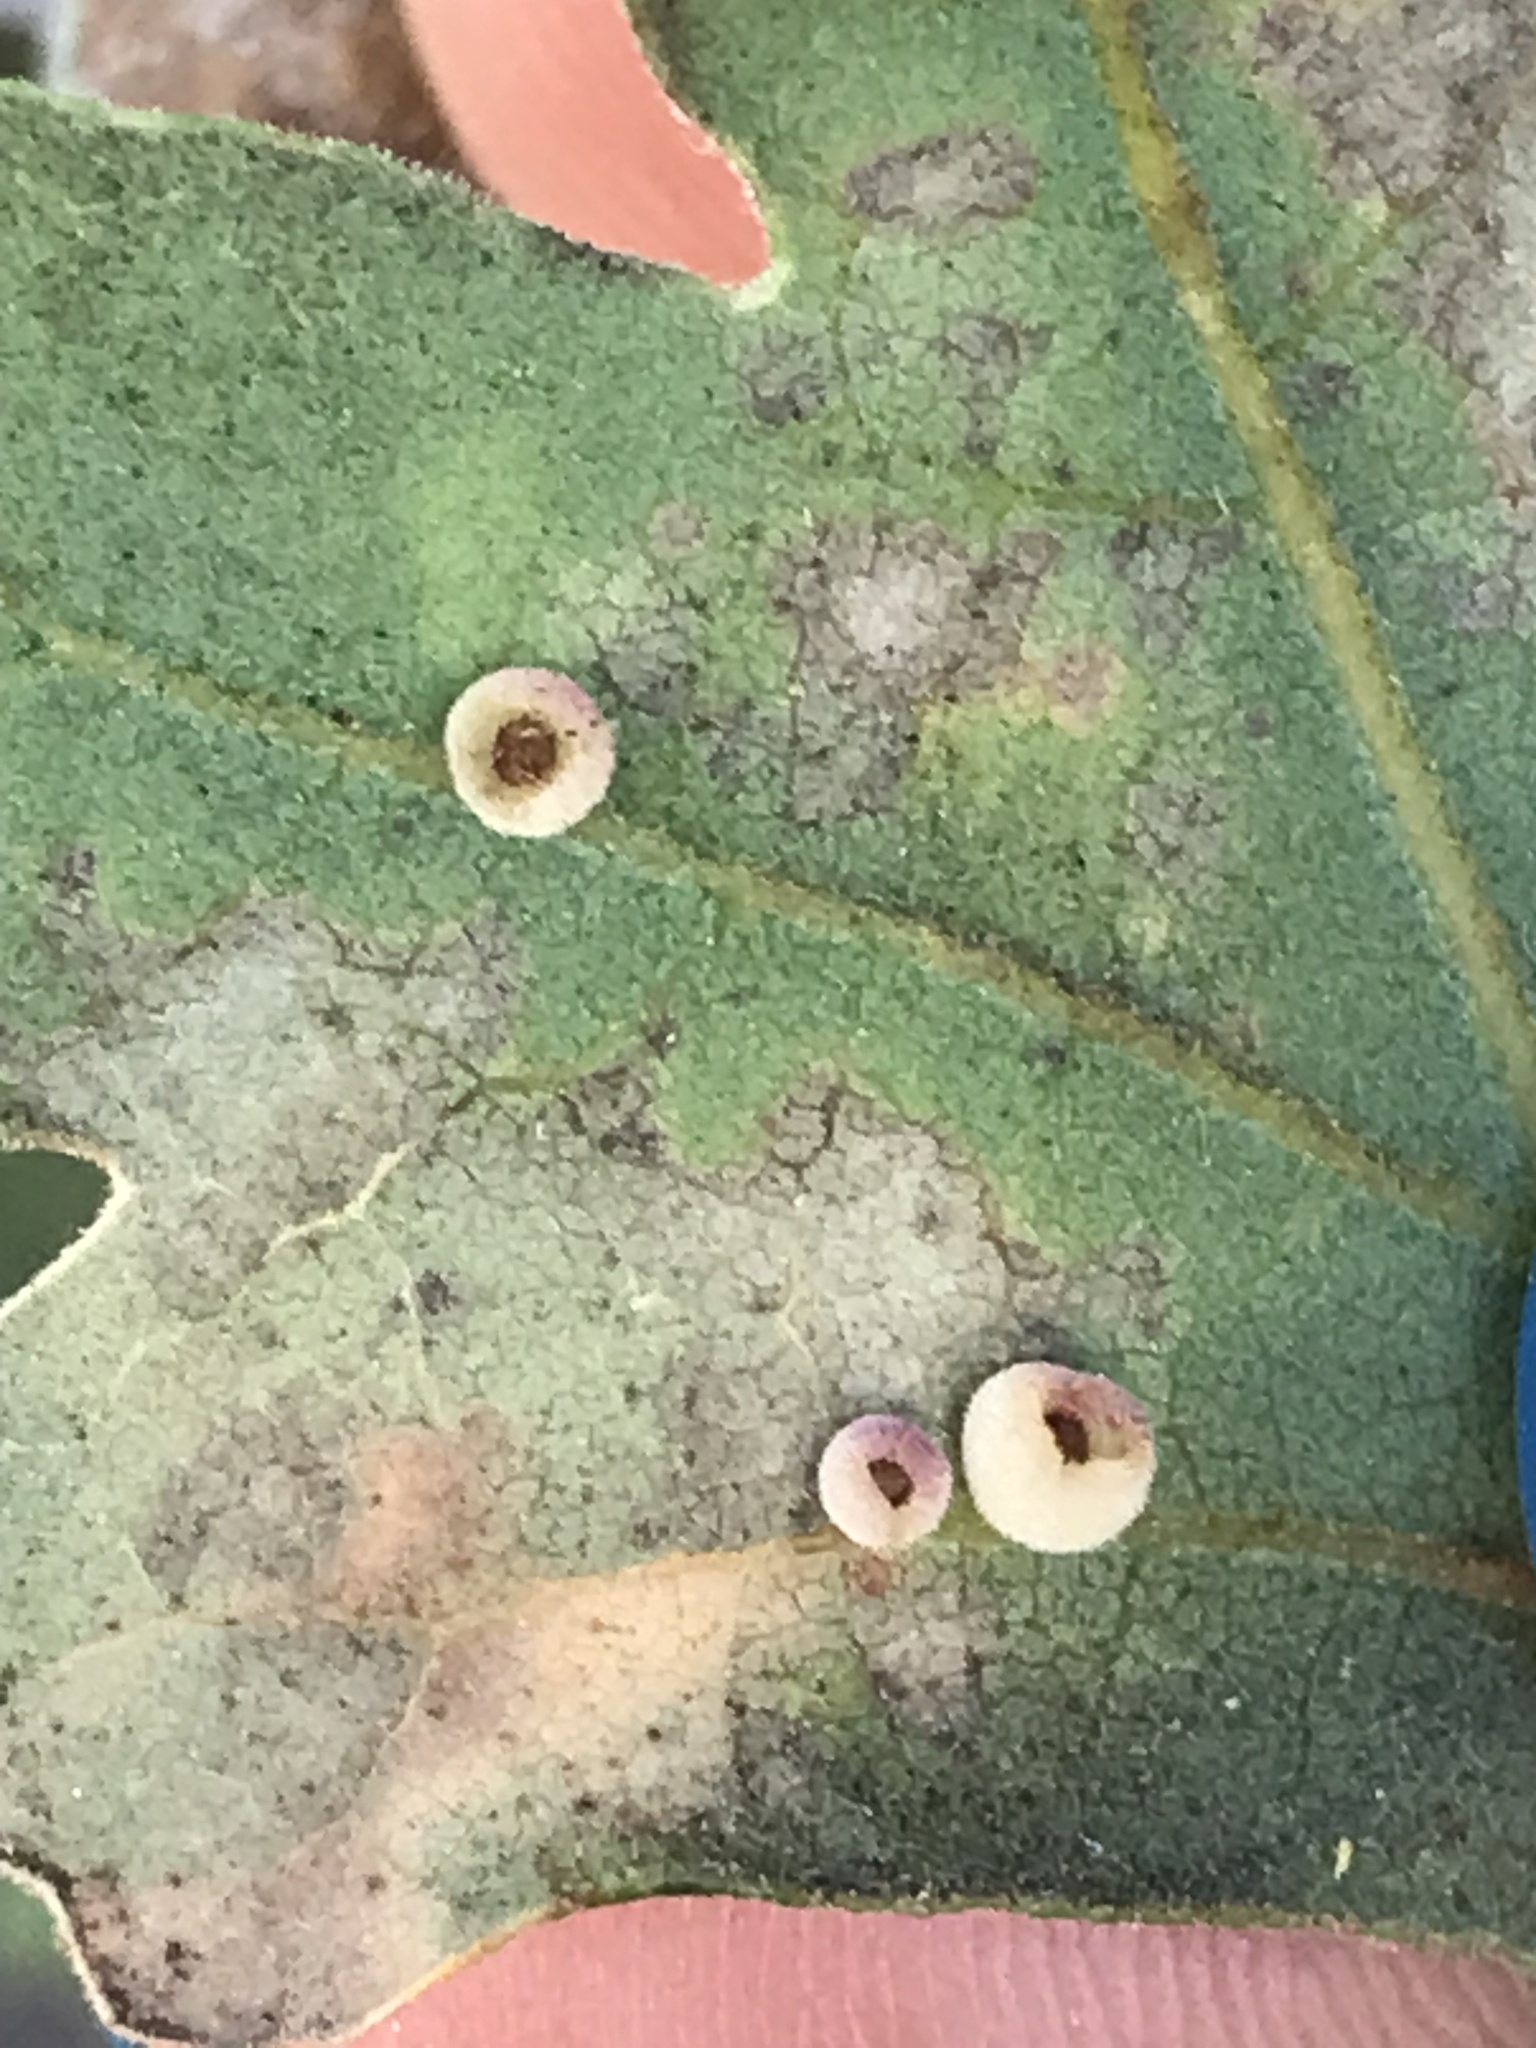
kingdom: Animalia
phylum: Arthropoda
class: Insecta
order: Hymenoptera
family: Cynipidae
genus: Andricus
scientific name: Andricus
